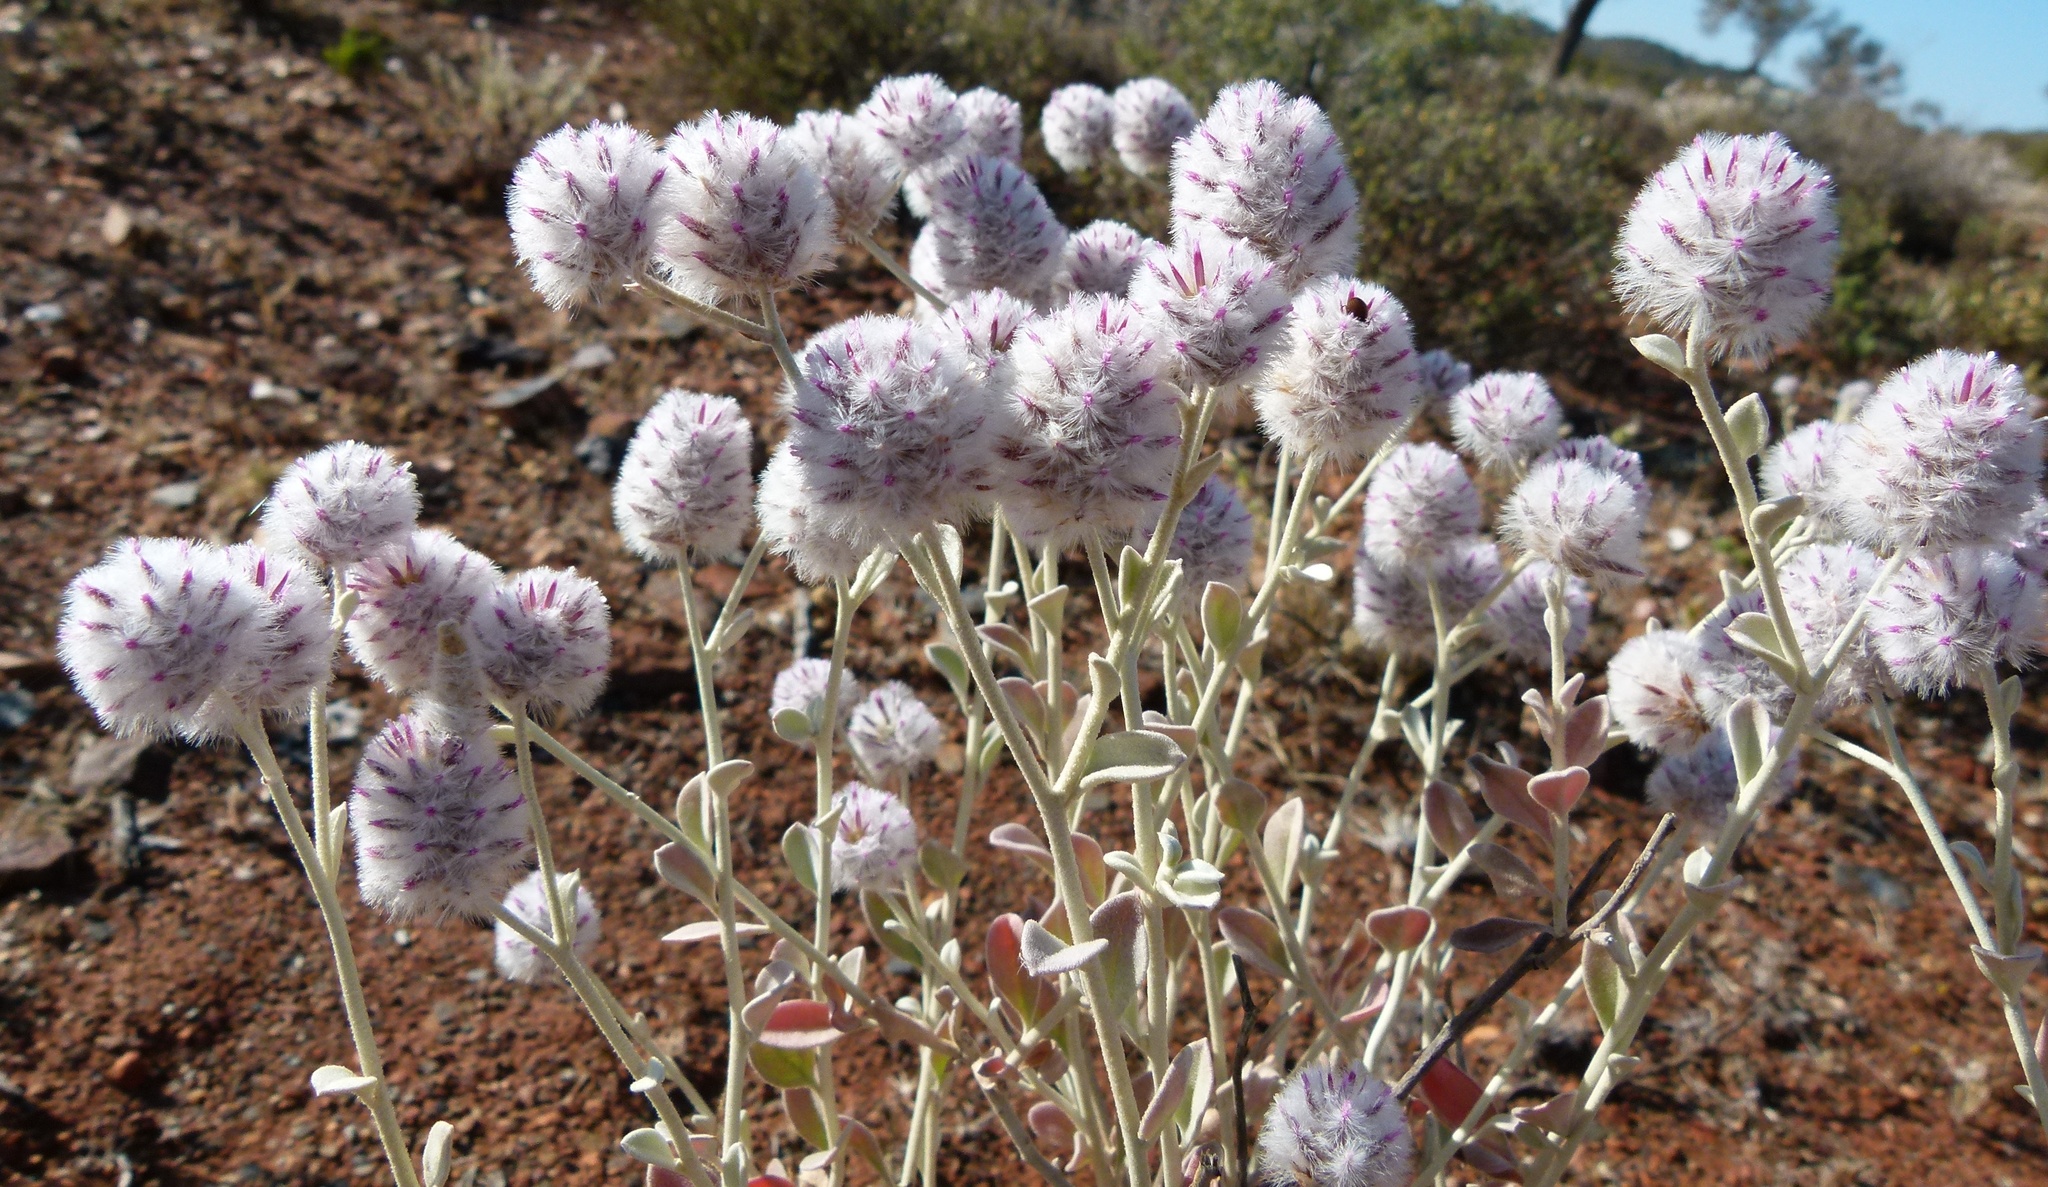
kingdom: Plantae
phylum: Tracheophyta
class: Magnoliopsida
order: Caryophyllales
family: Amaranthaceae
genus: Ptilotus
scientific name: Ptilotus obovatus
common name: Cottonbush
